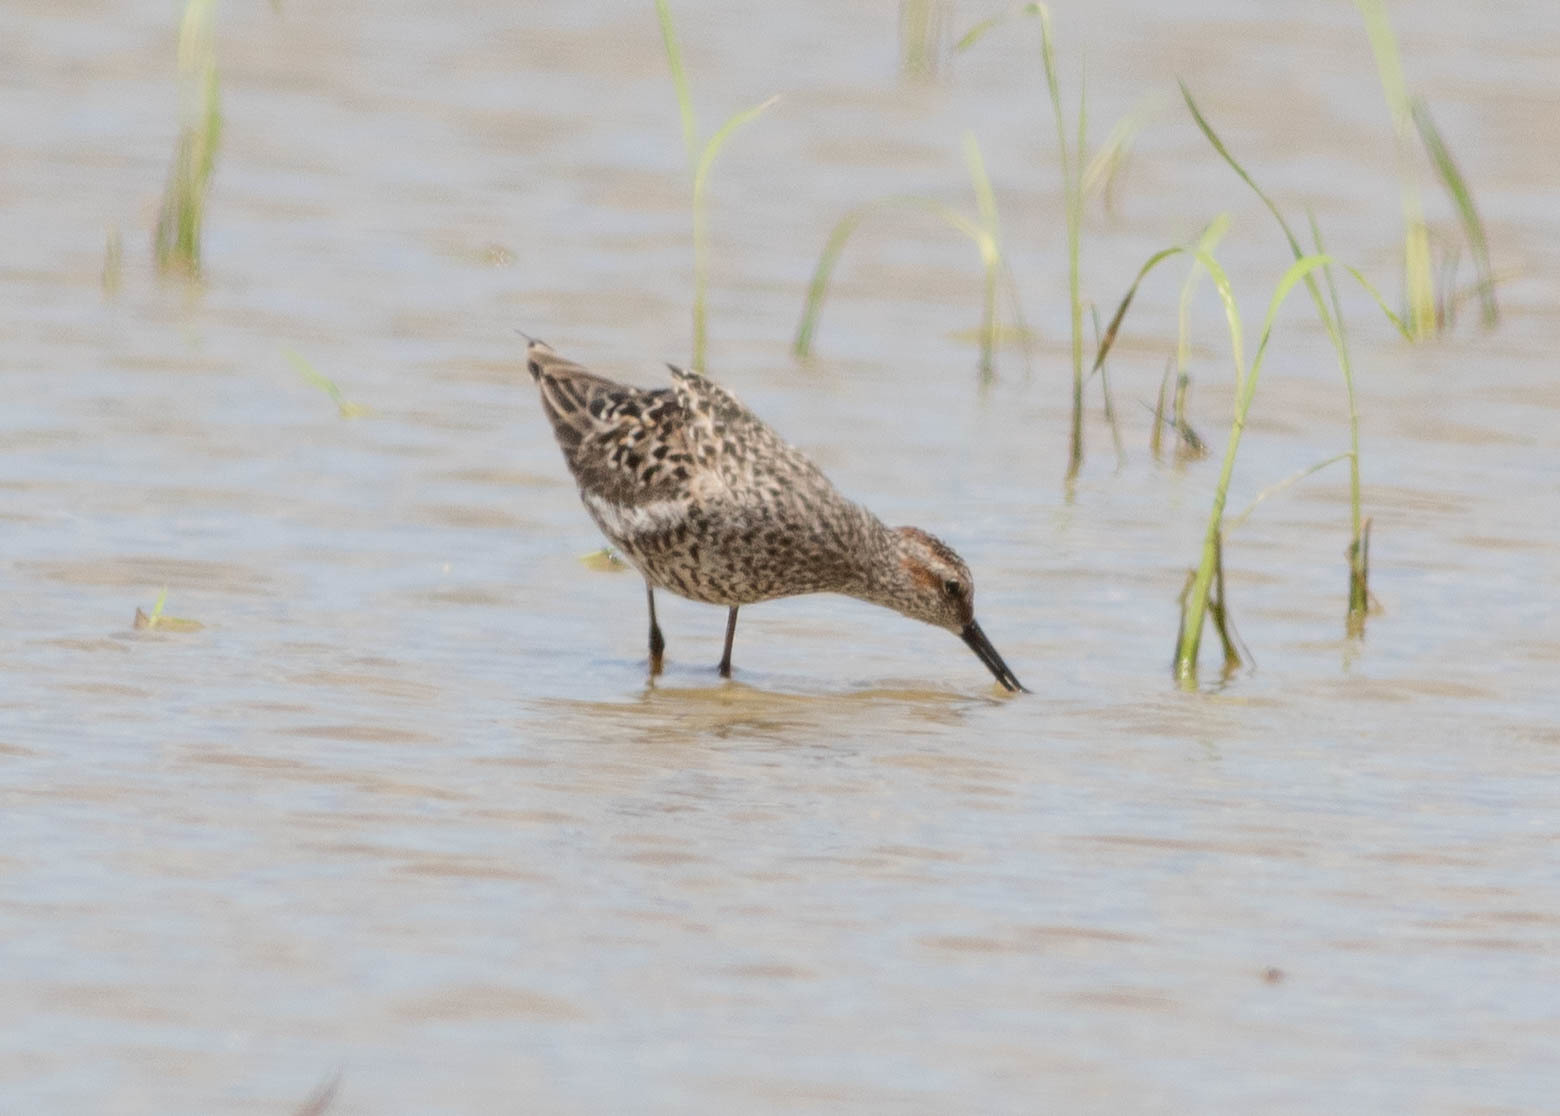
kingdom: Animalia
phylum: Chordata
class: Aves
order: Charadriiformes
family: Scolopacidae
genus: Calidris
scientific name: Calidris himantopus
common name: Stilt sandpiper
